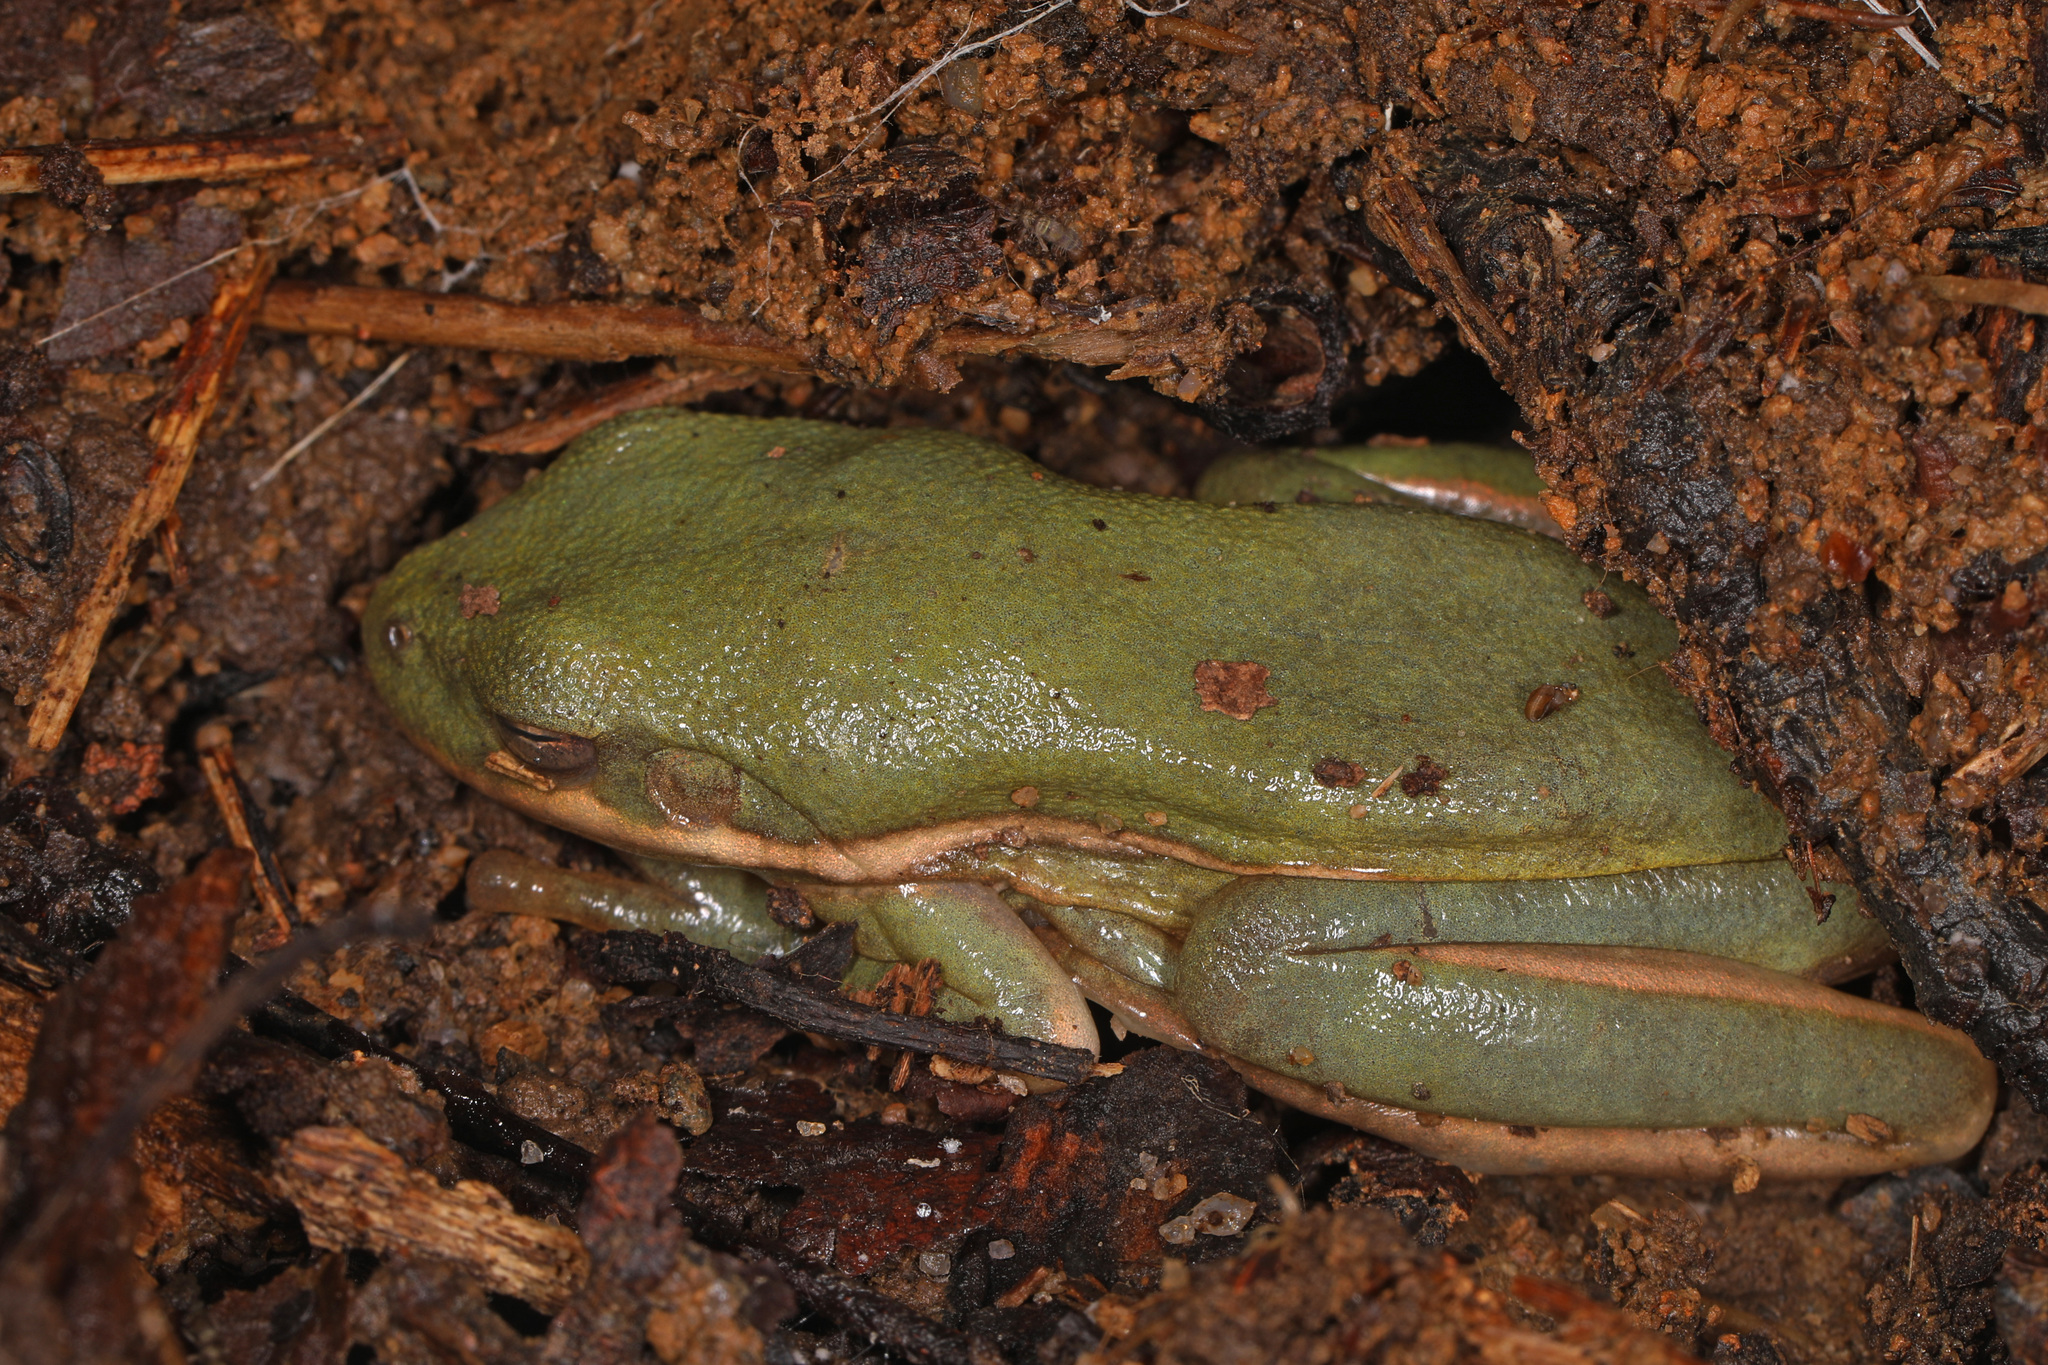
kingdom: Animalia
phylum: Chordata
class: Amphibia
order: Anura
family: Hylidae
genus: Dryophytes
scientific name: Dryophytes cinereus
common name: Green treefrog
